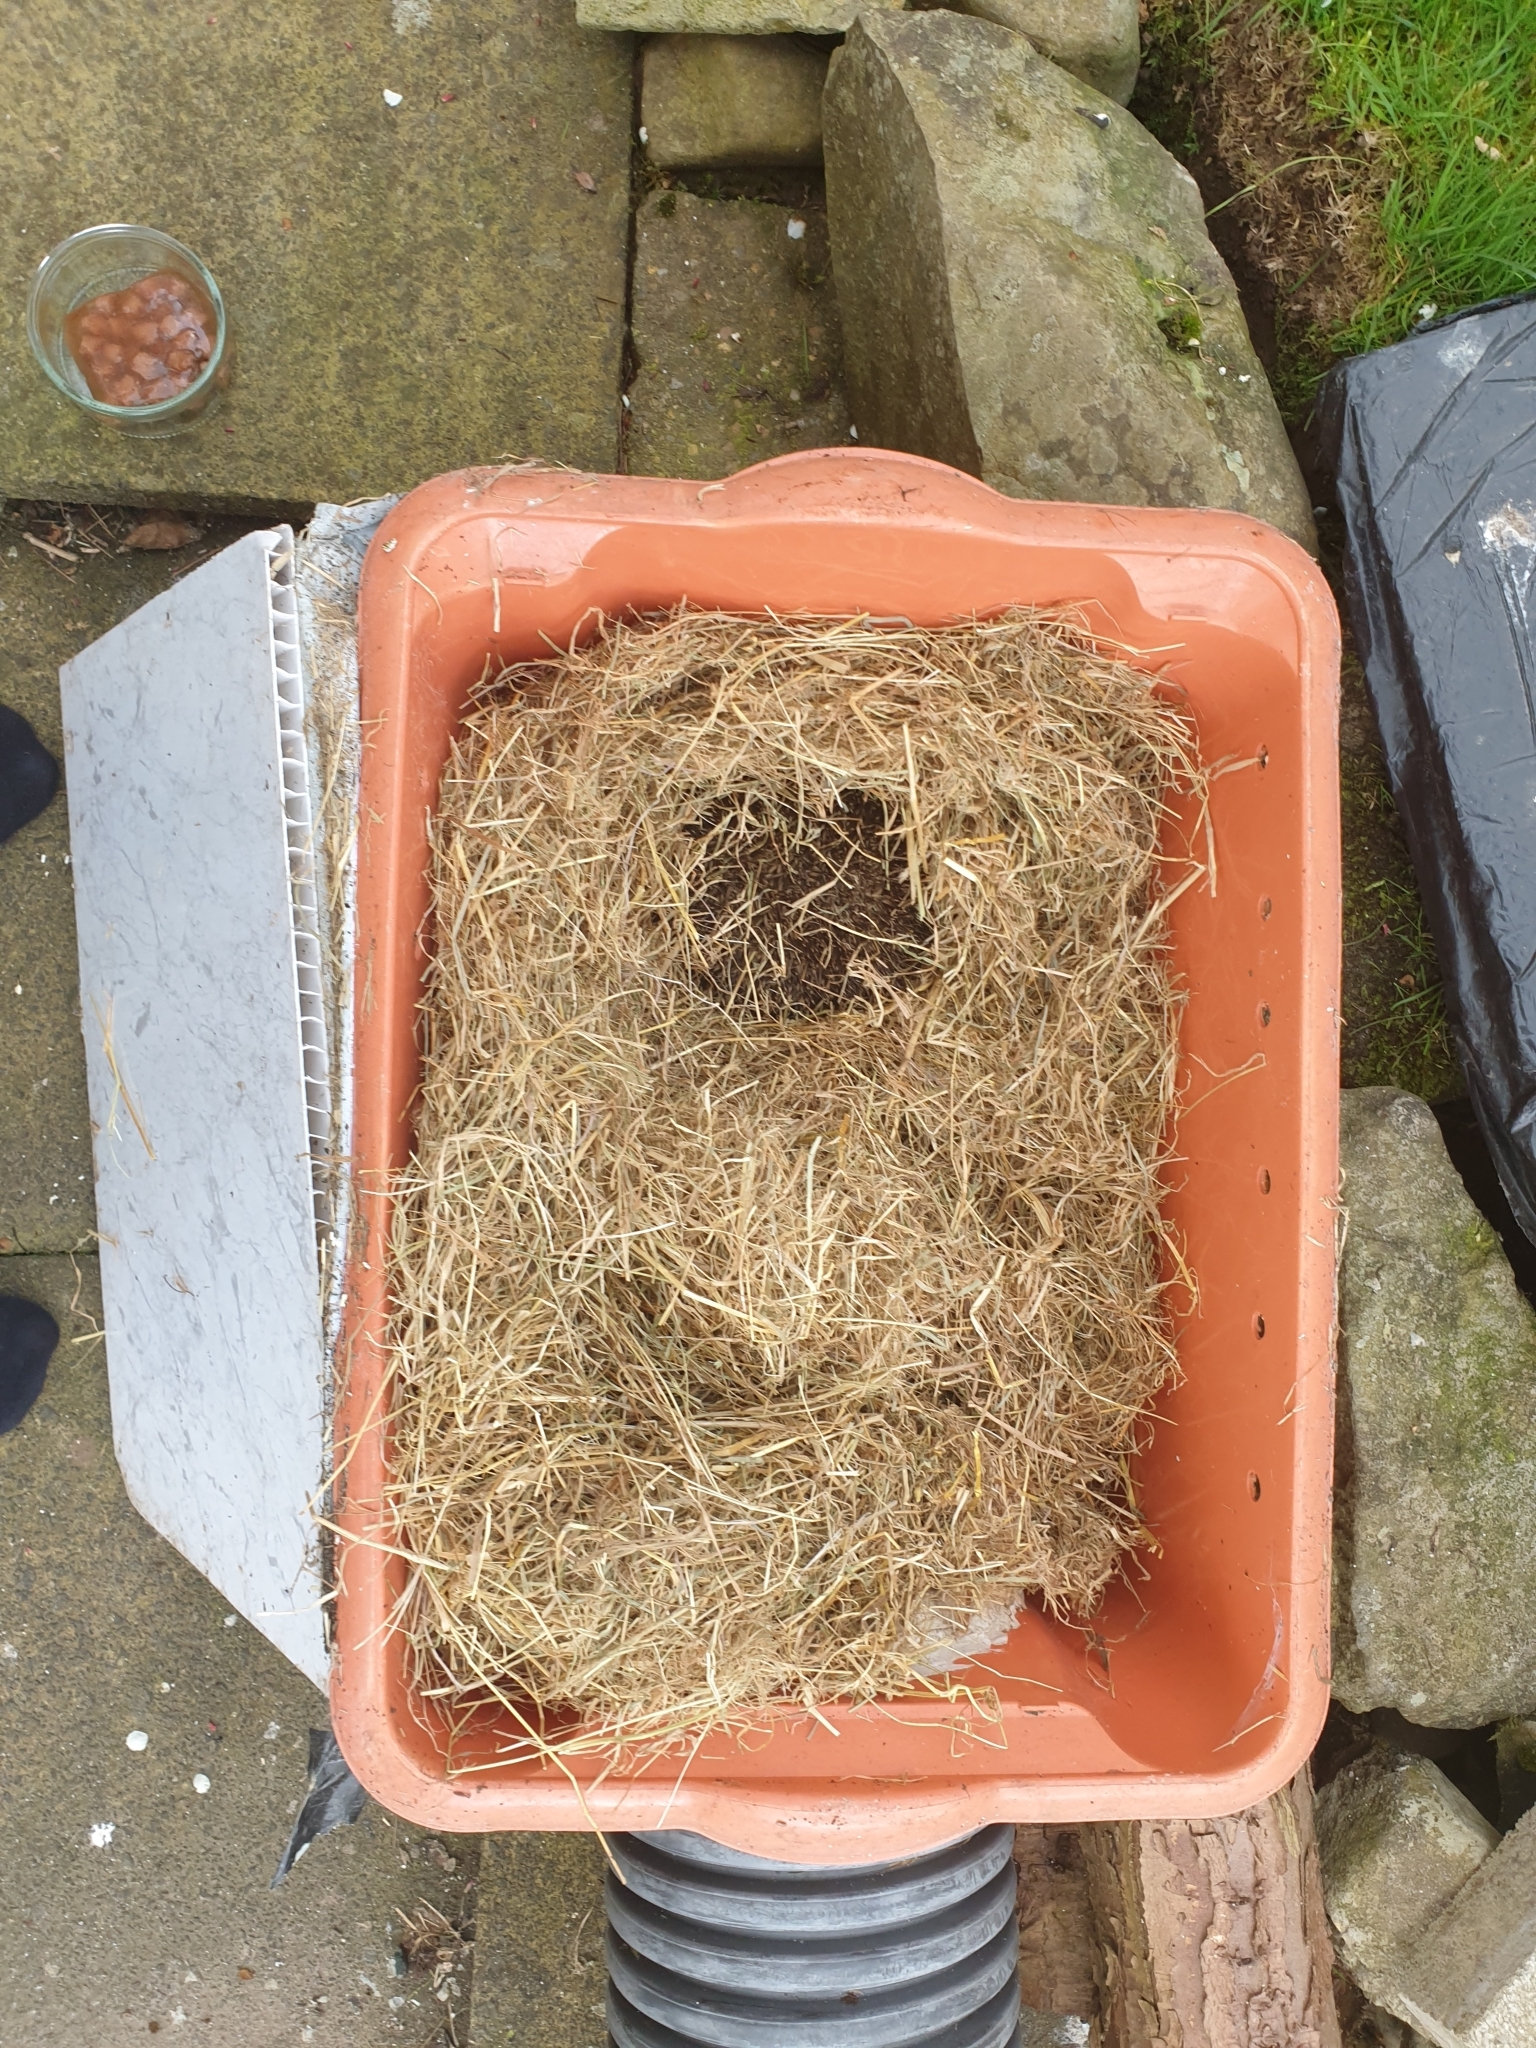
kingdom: Animalia
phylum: Chordata
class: Mammalia
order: Erinaceomorpha
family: Erinaceidae
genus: Erinaceus
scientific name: Erinaceus europaeus
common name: West european hedgehog
